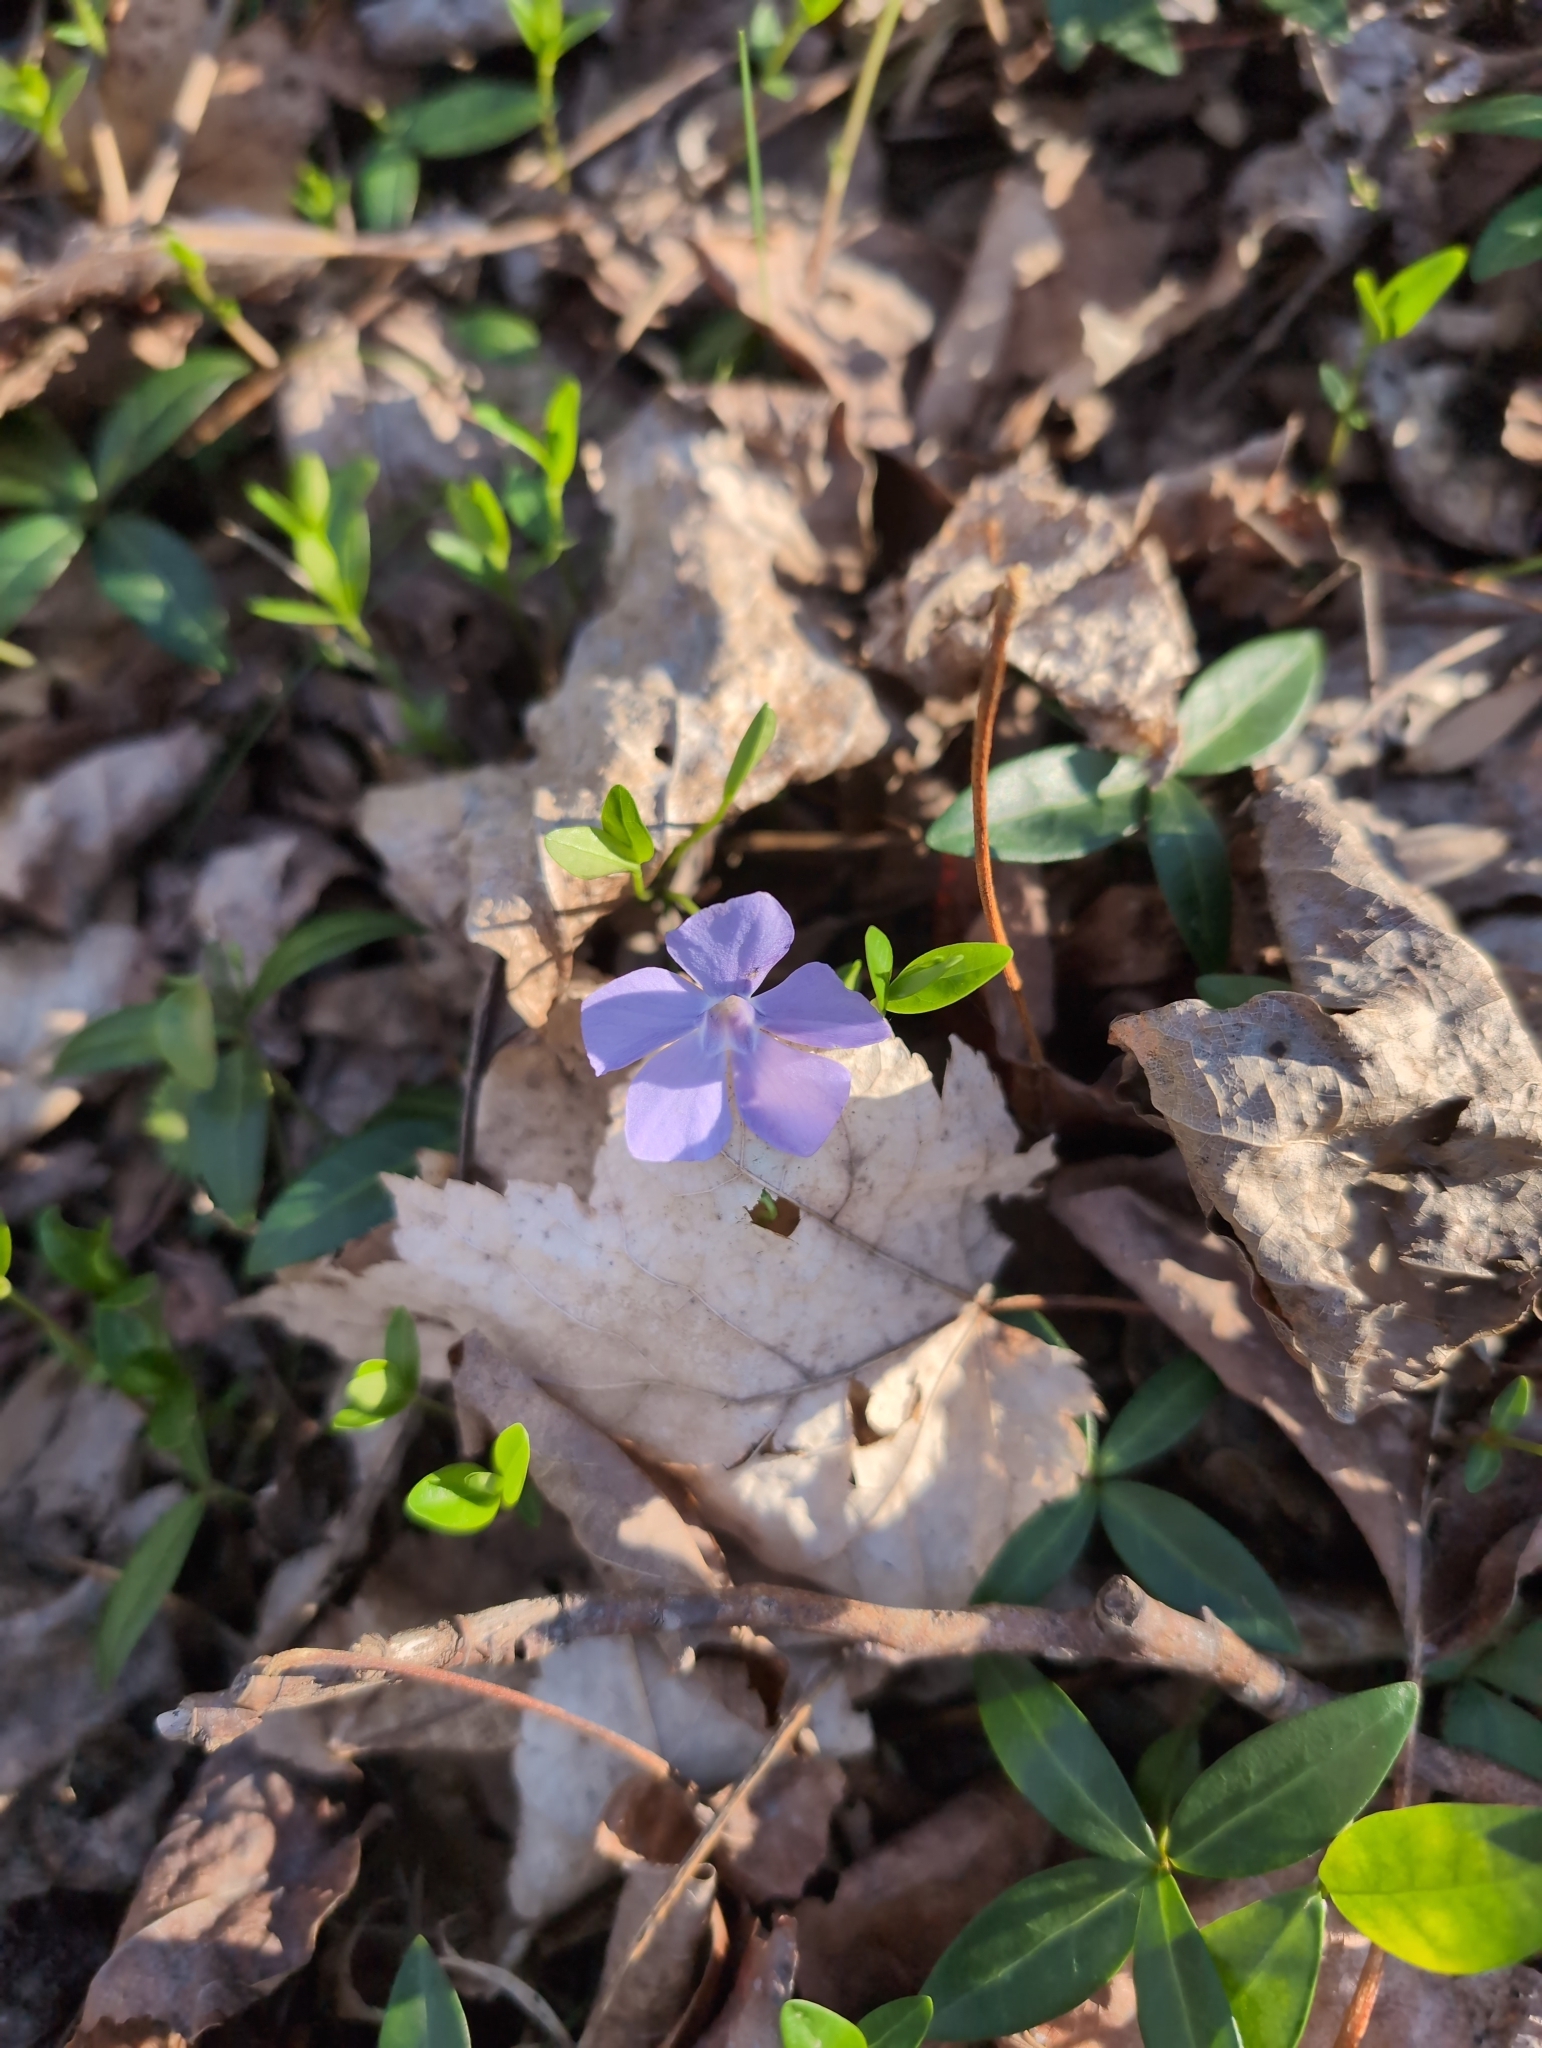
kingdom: Plantae
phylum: Tracheophyta
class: Magnoliopsida
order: Gentianales
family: Apocynaceae
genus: Vinca
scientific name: Vinca minor
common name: Lesser periwinkle
